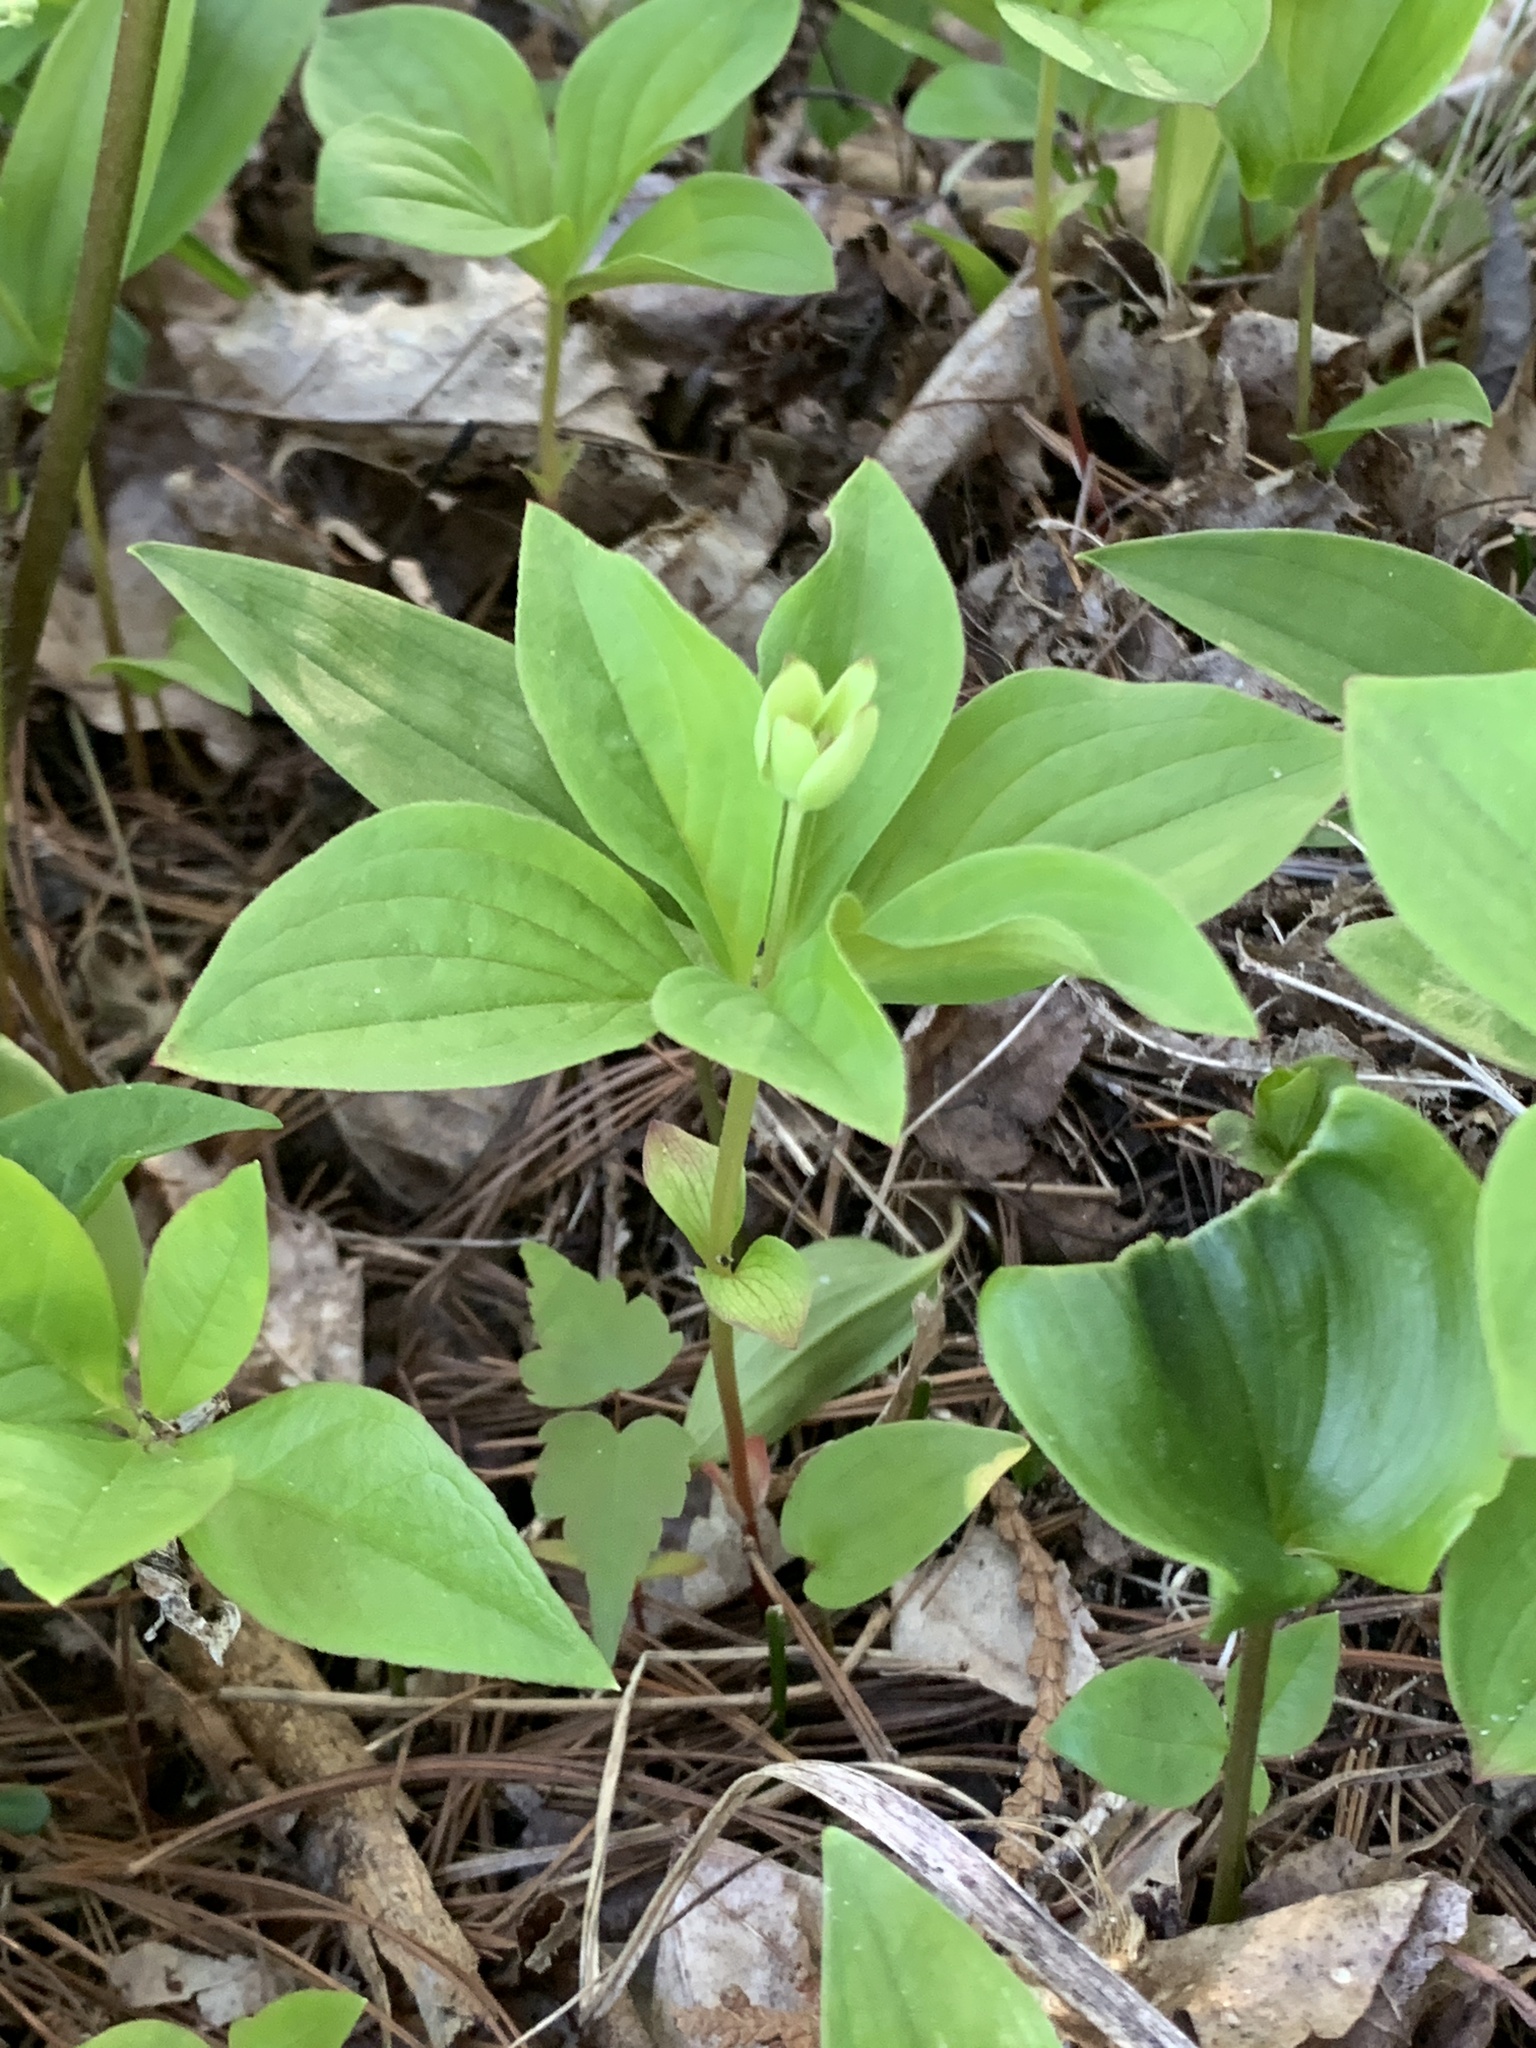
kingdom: Plantae
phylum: Tracheophyta
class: Magnoliopsida
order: Cornales
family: Cornaceae
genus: Cornus
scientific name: Cornus canadensis
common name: Creeping dogwood
